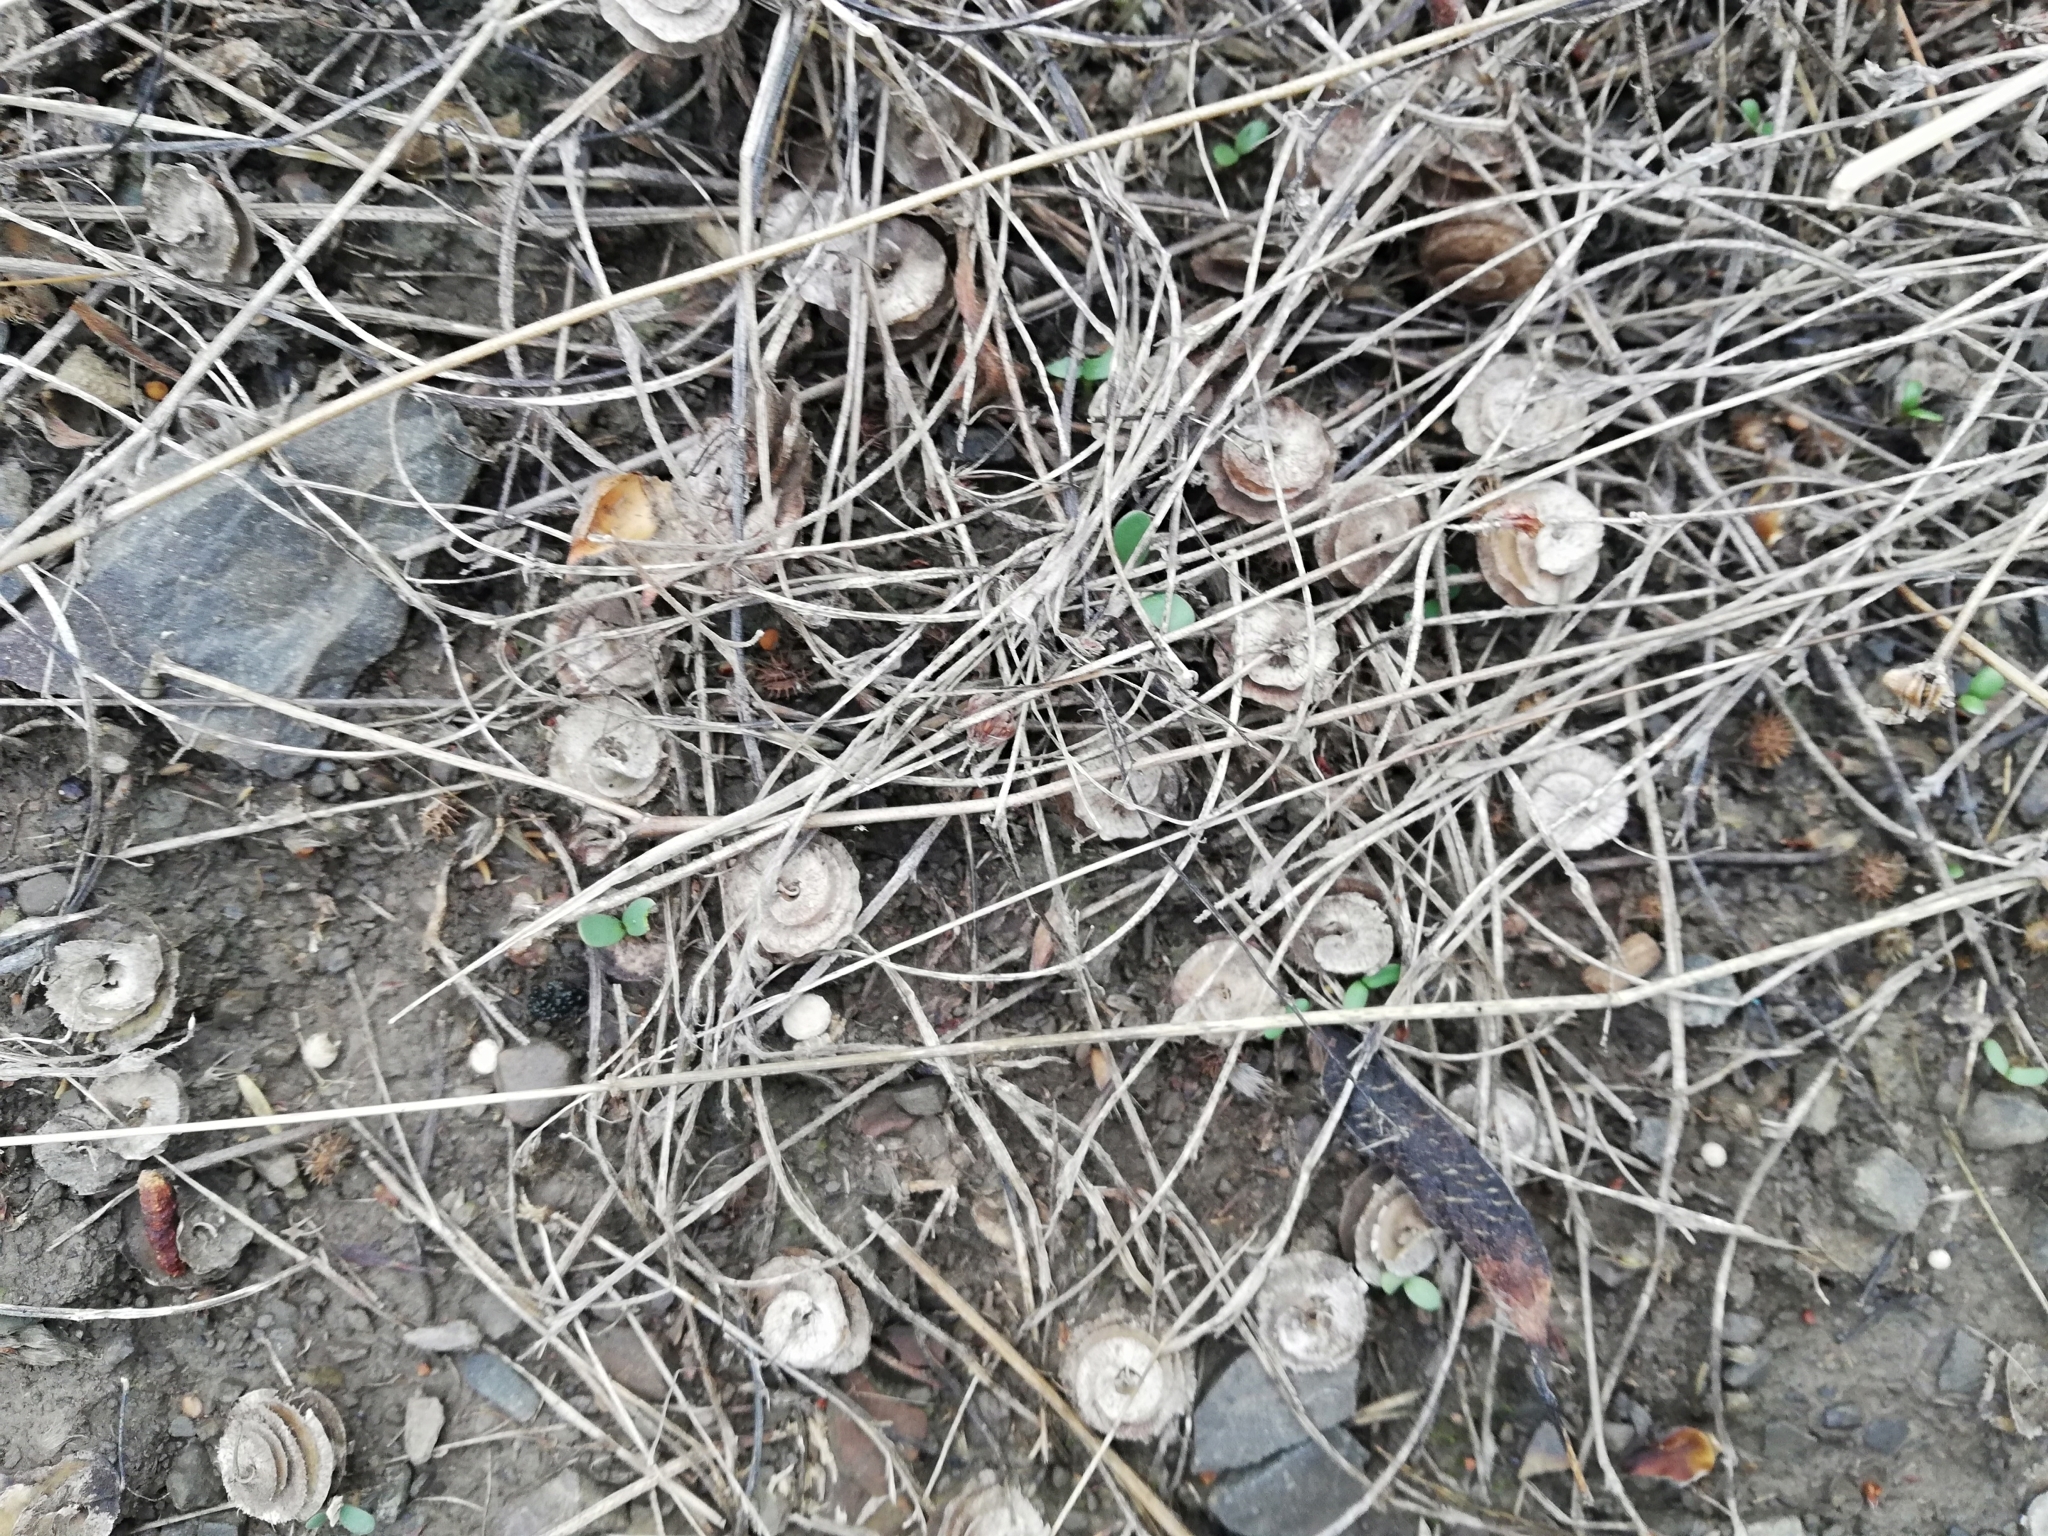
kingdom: Plantae
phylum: Tracheophyta
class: Magnoliopsida
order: Fabales
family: Fabaceae
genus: Medicago
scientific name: Medicago orbicularis
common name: Button medick
